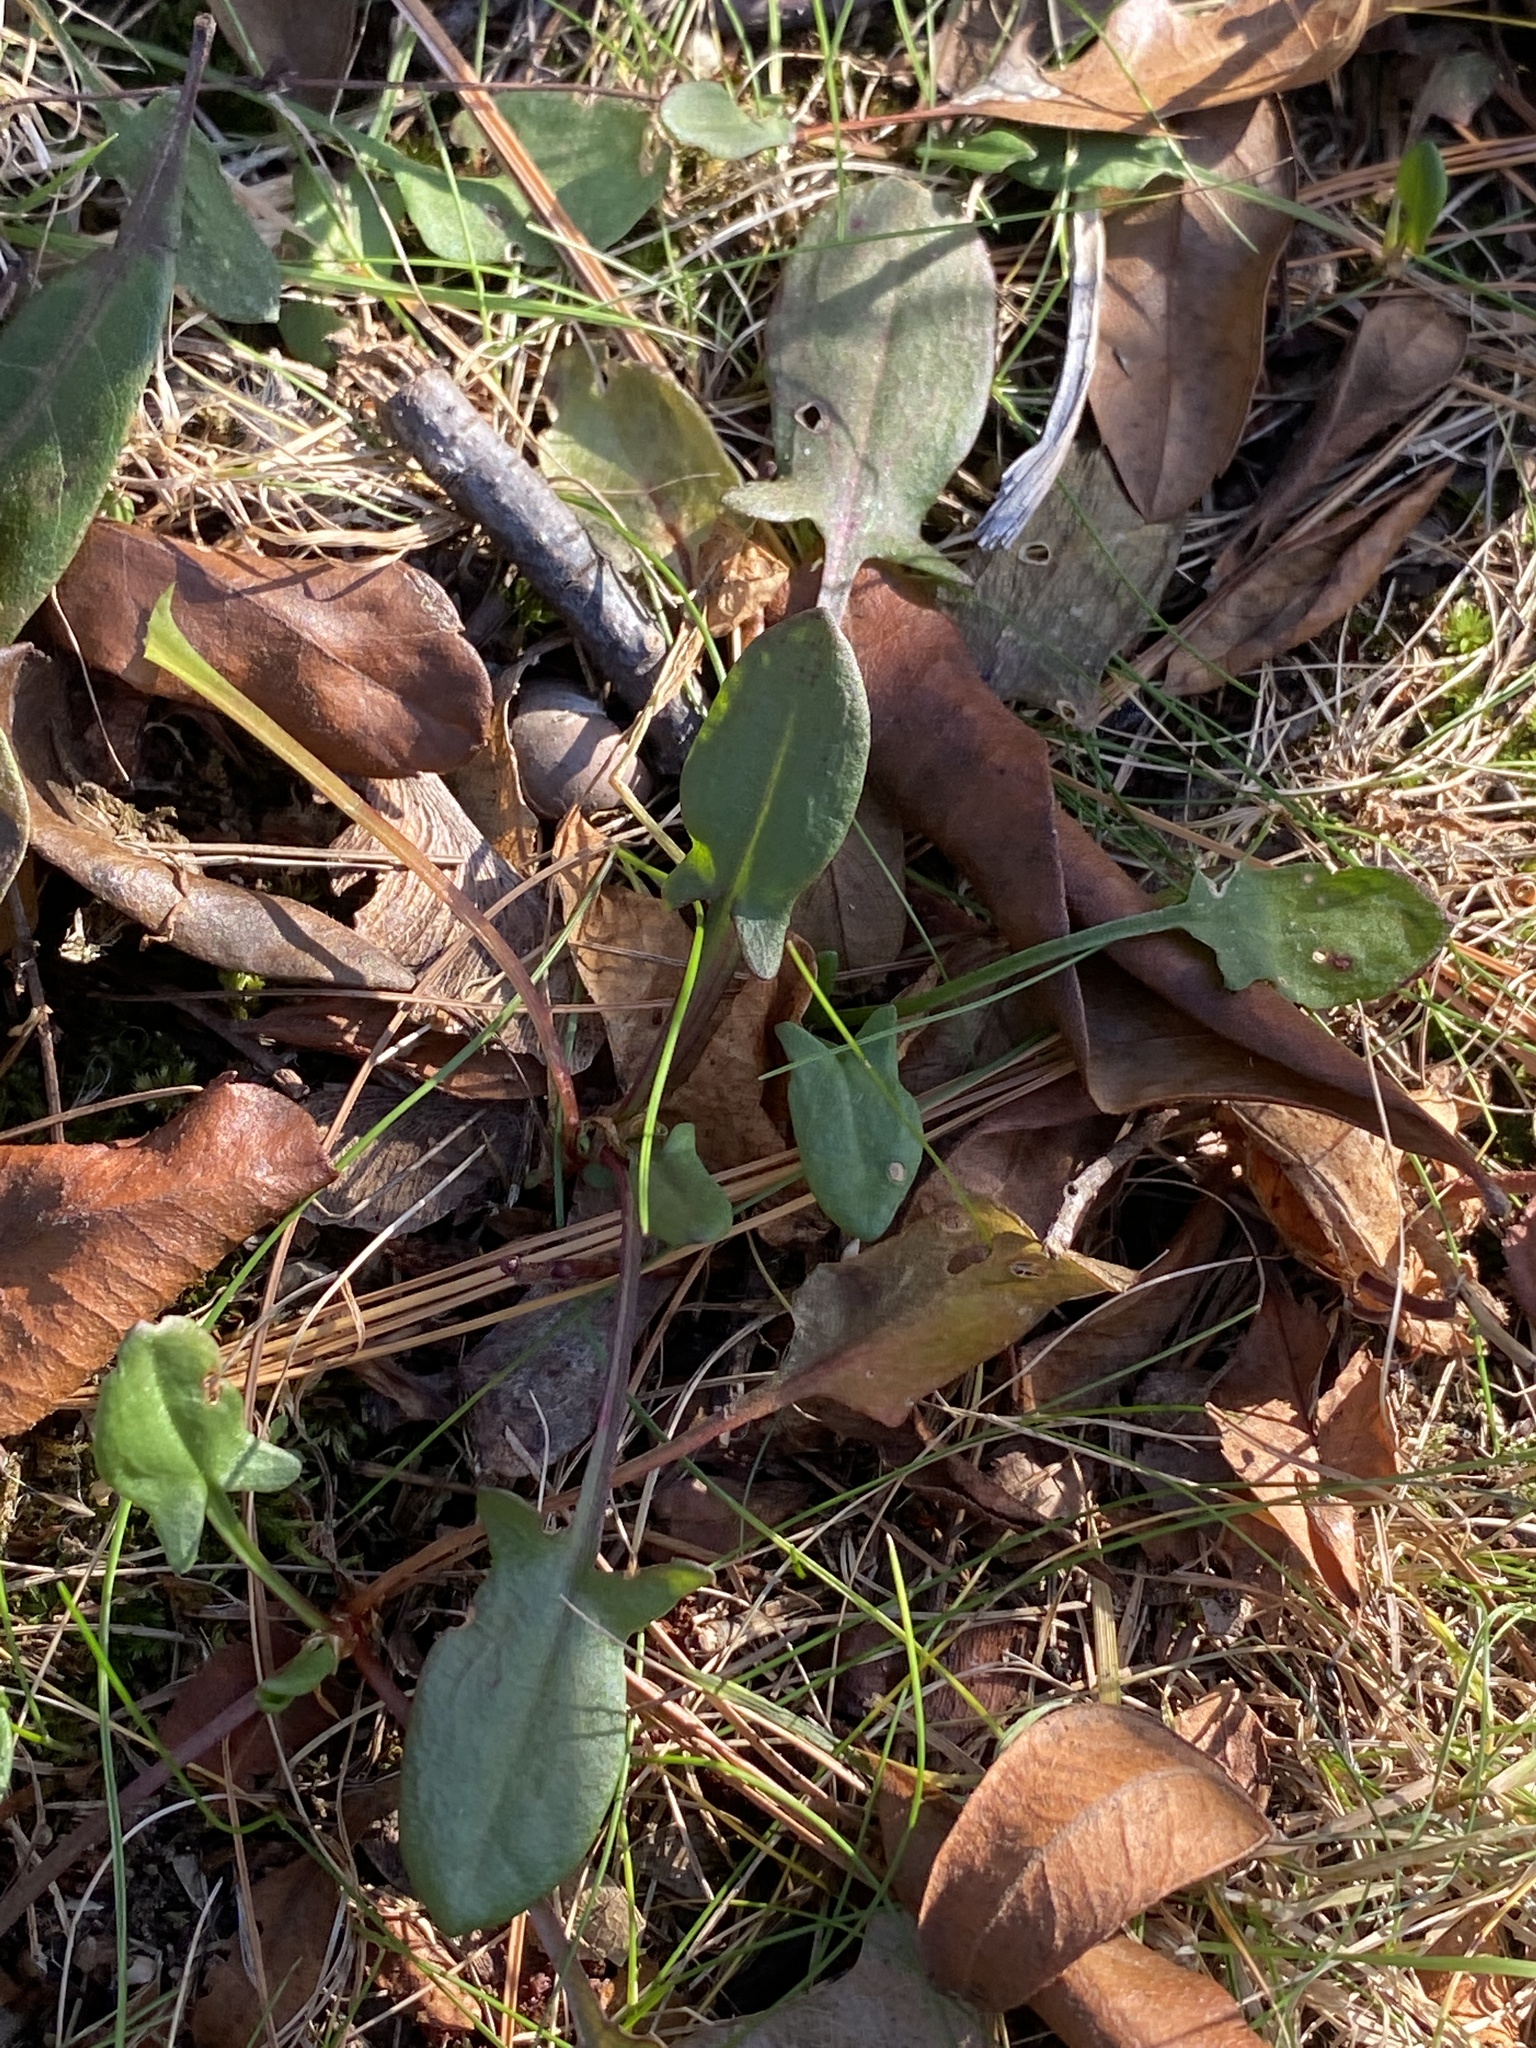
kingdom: Plantae
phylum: Tracheophyta
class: Magnoliopsida
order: Caryophyllales
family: Polygonaceae
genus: Rumex
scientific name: Rumex acetosella
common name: Common sheep sorrel
